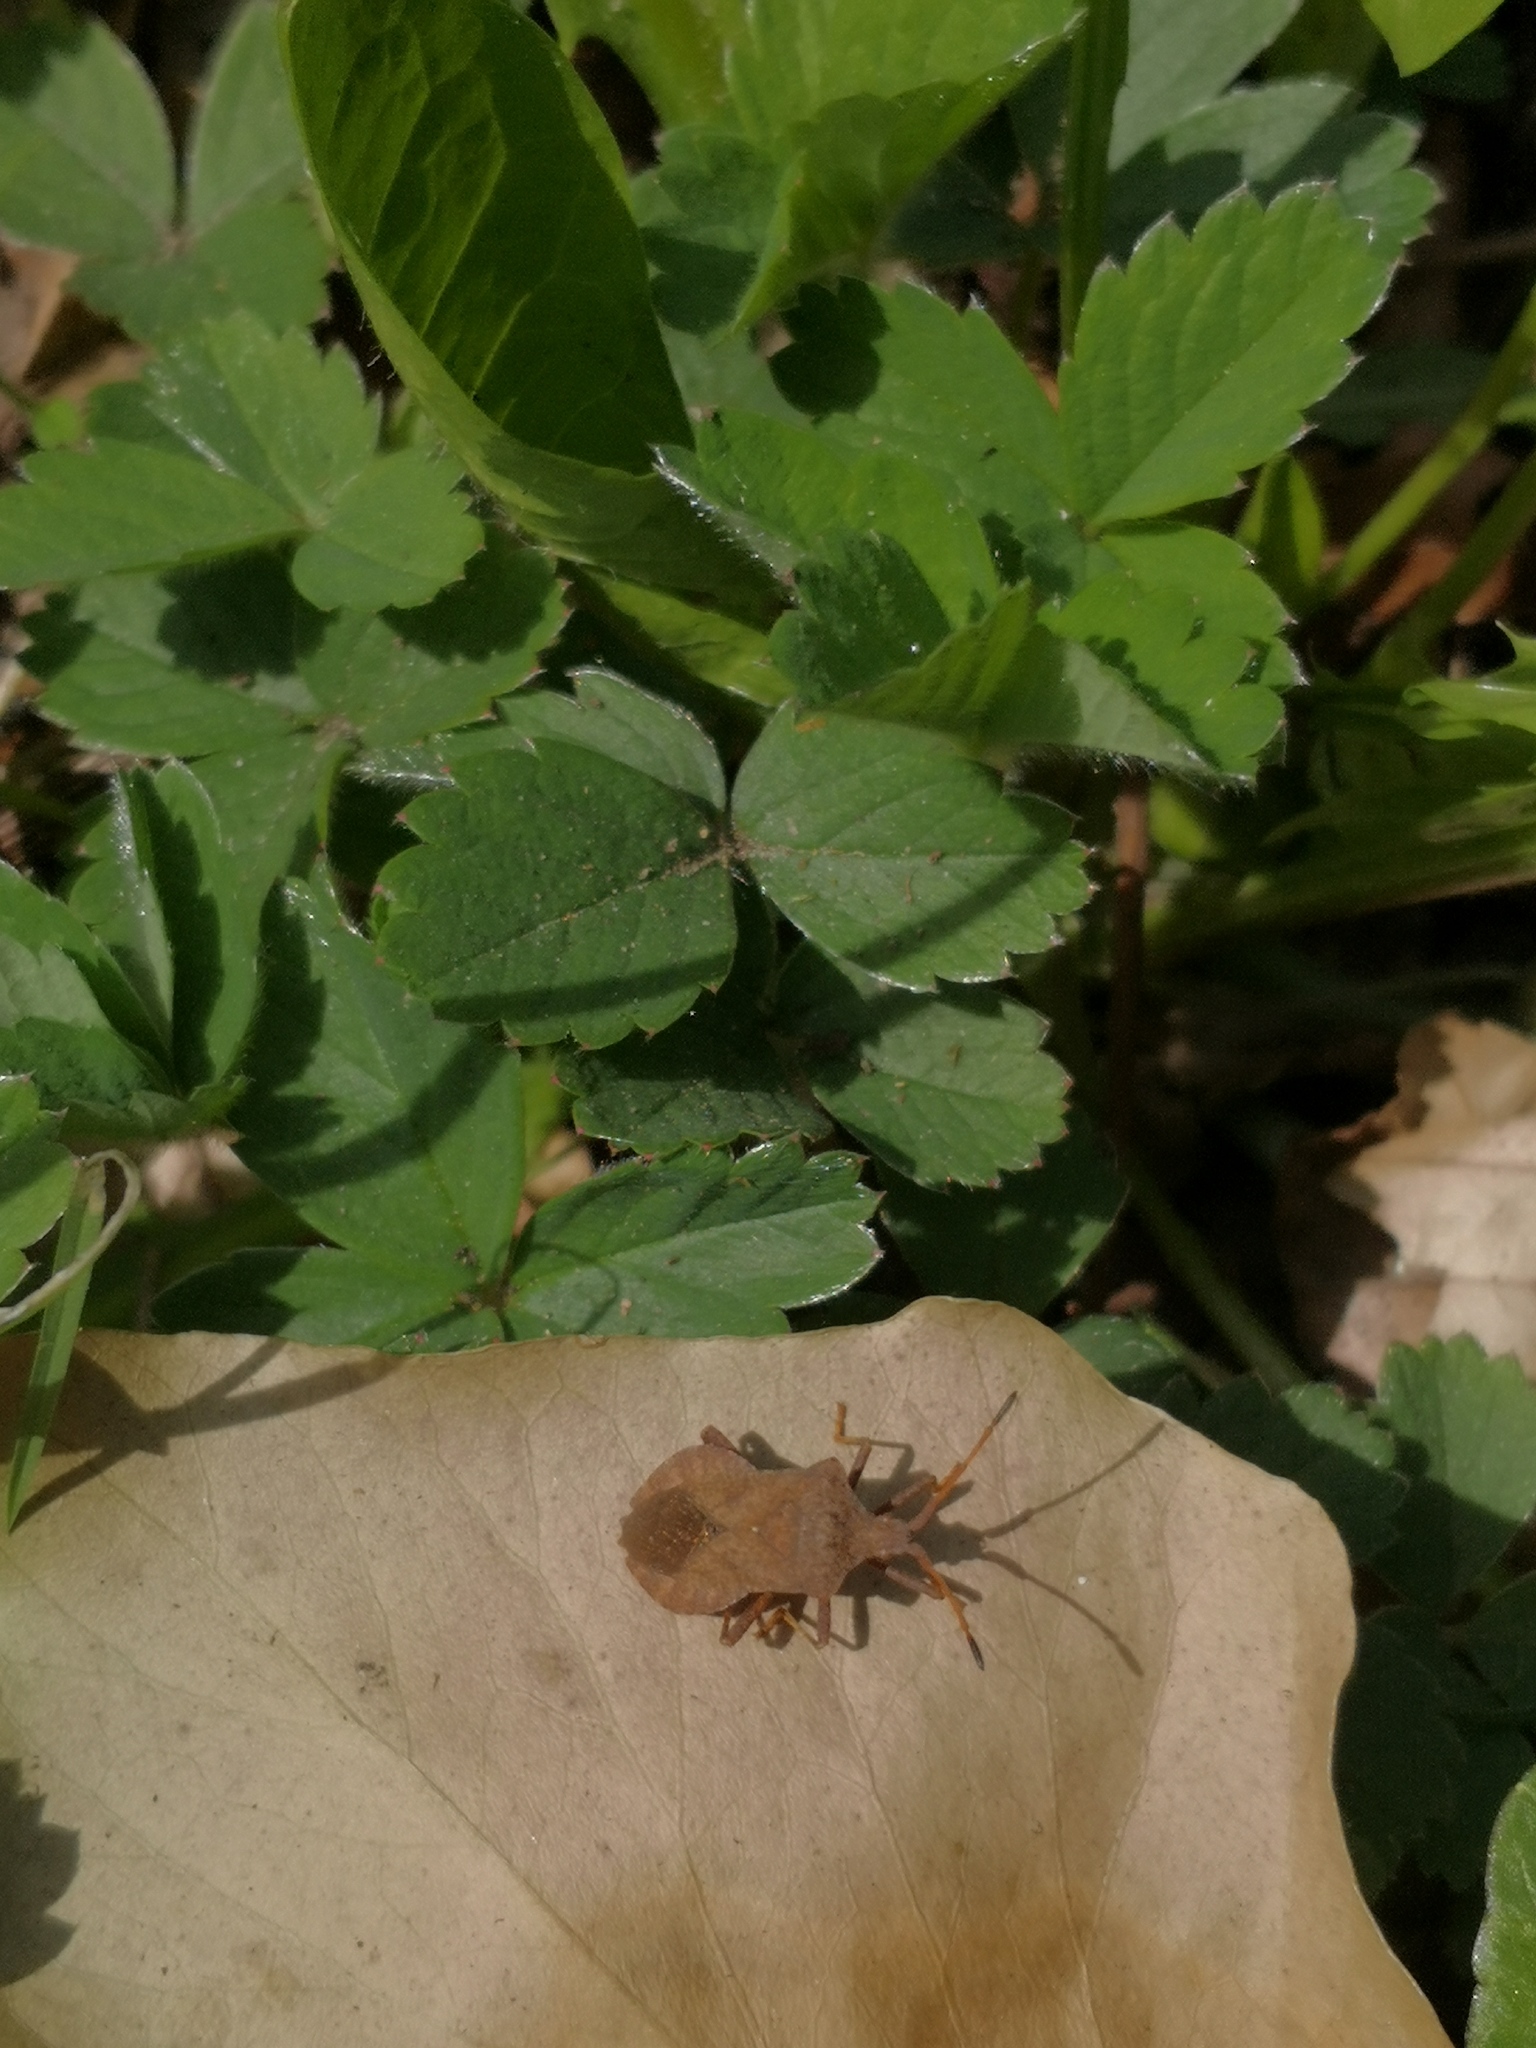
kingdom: Animalia
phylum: Arthropoda
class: Insecta
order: Hemiptera
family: Coreidae
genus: Coreus
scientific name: Coreus marginatus
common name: Dock bug
